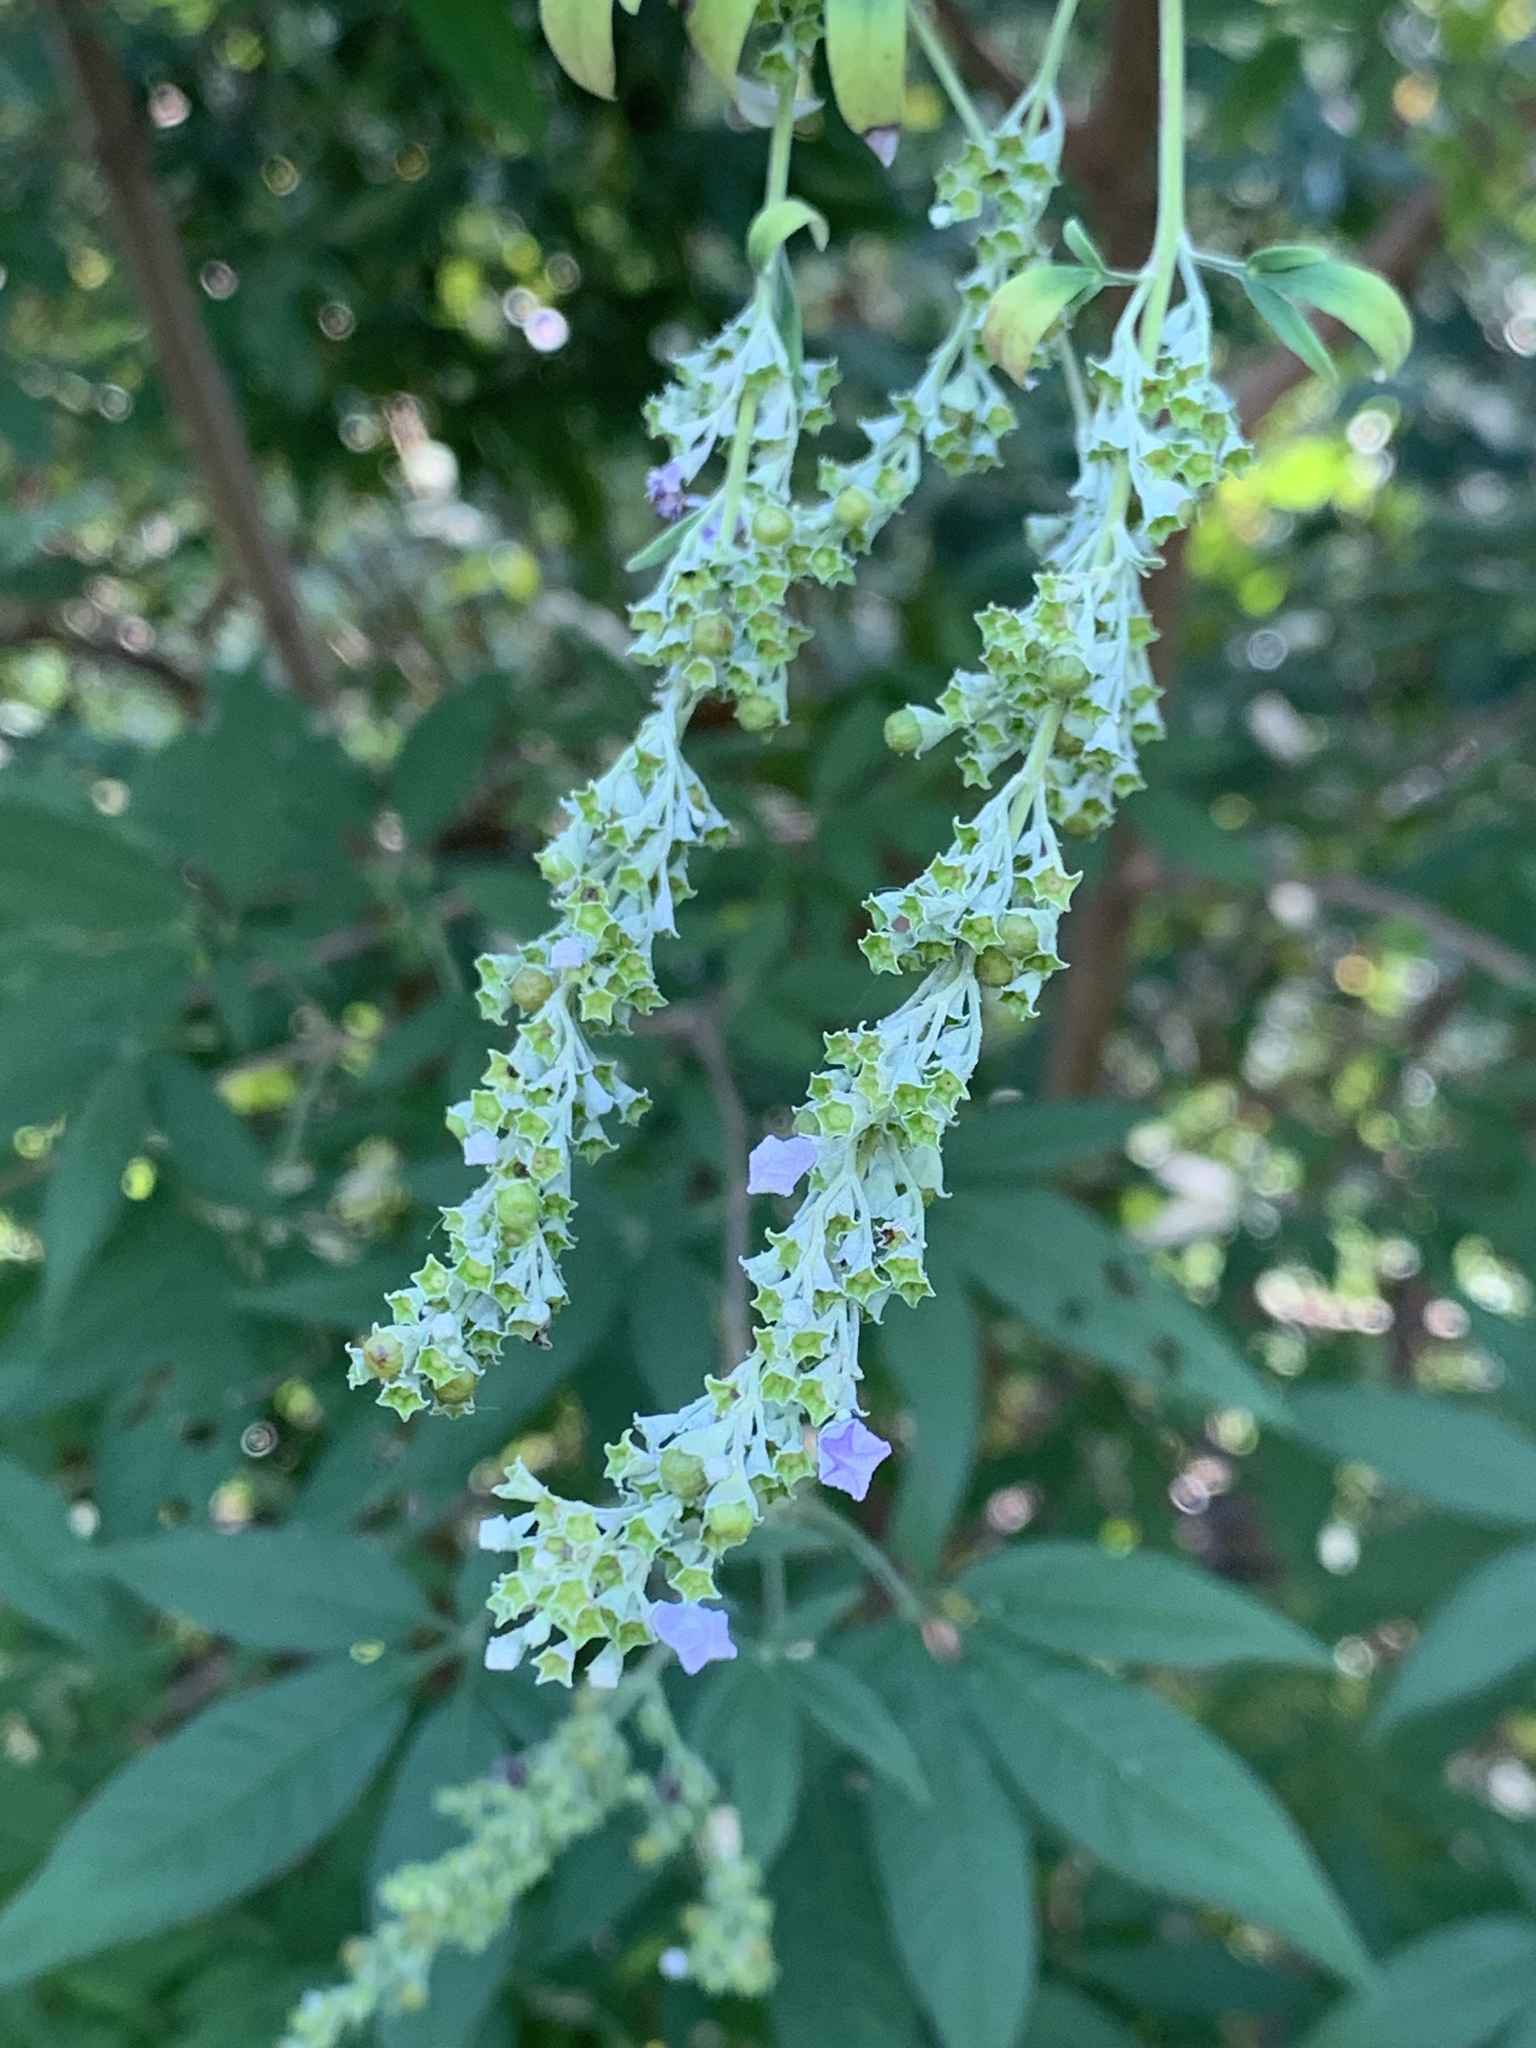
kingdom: Plantae
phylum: Tracheophyta
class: Magnoliopsida
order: Lamiales
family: Lamiaceae
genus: Vitex
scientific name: Vitex negundo
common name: Chinese chastetree
